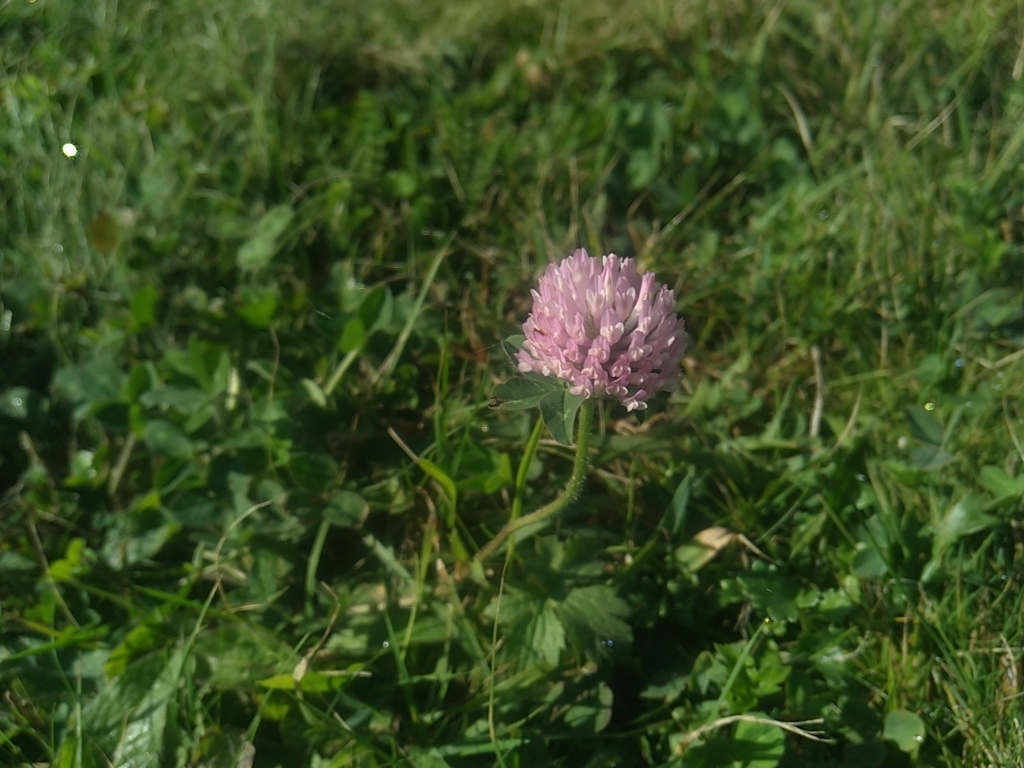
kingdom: Plantae
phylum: Tracheophyta
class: Magnoliopsida
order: Fabales
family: Fabaceae
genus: Trifolium
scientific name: Trifolium pratense
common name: Red clover
